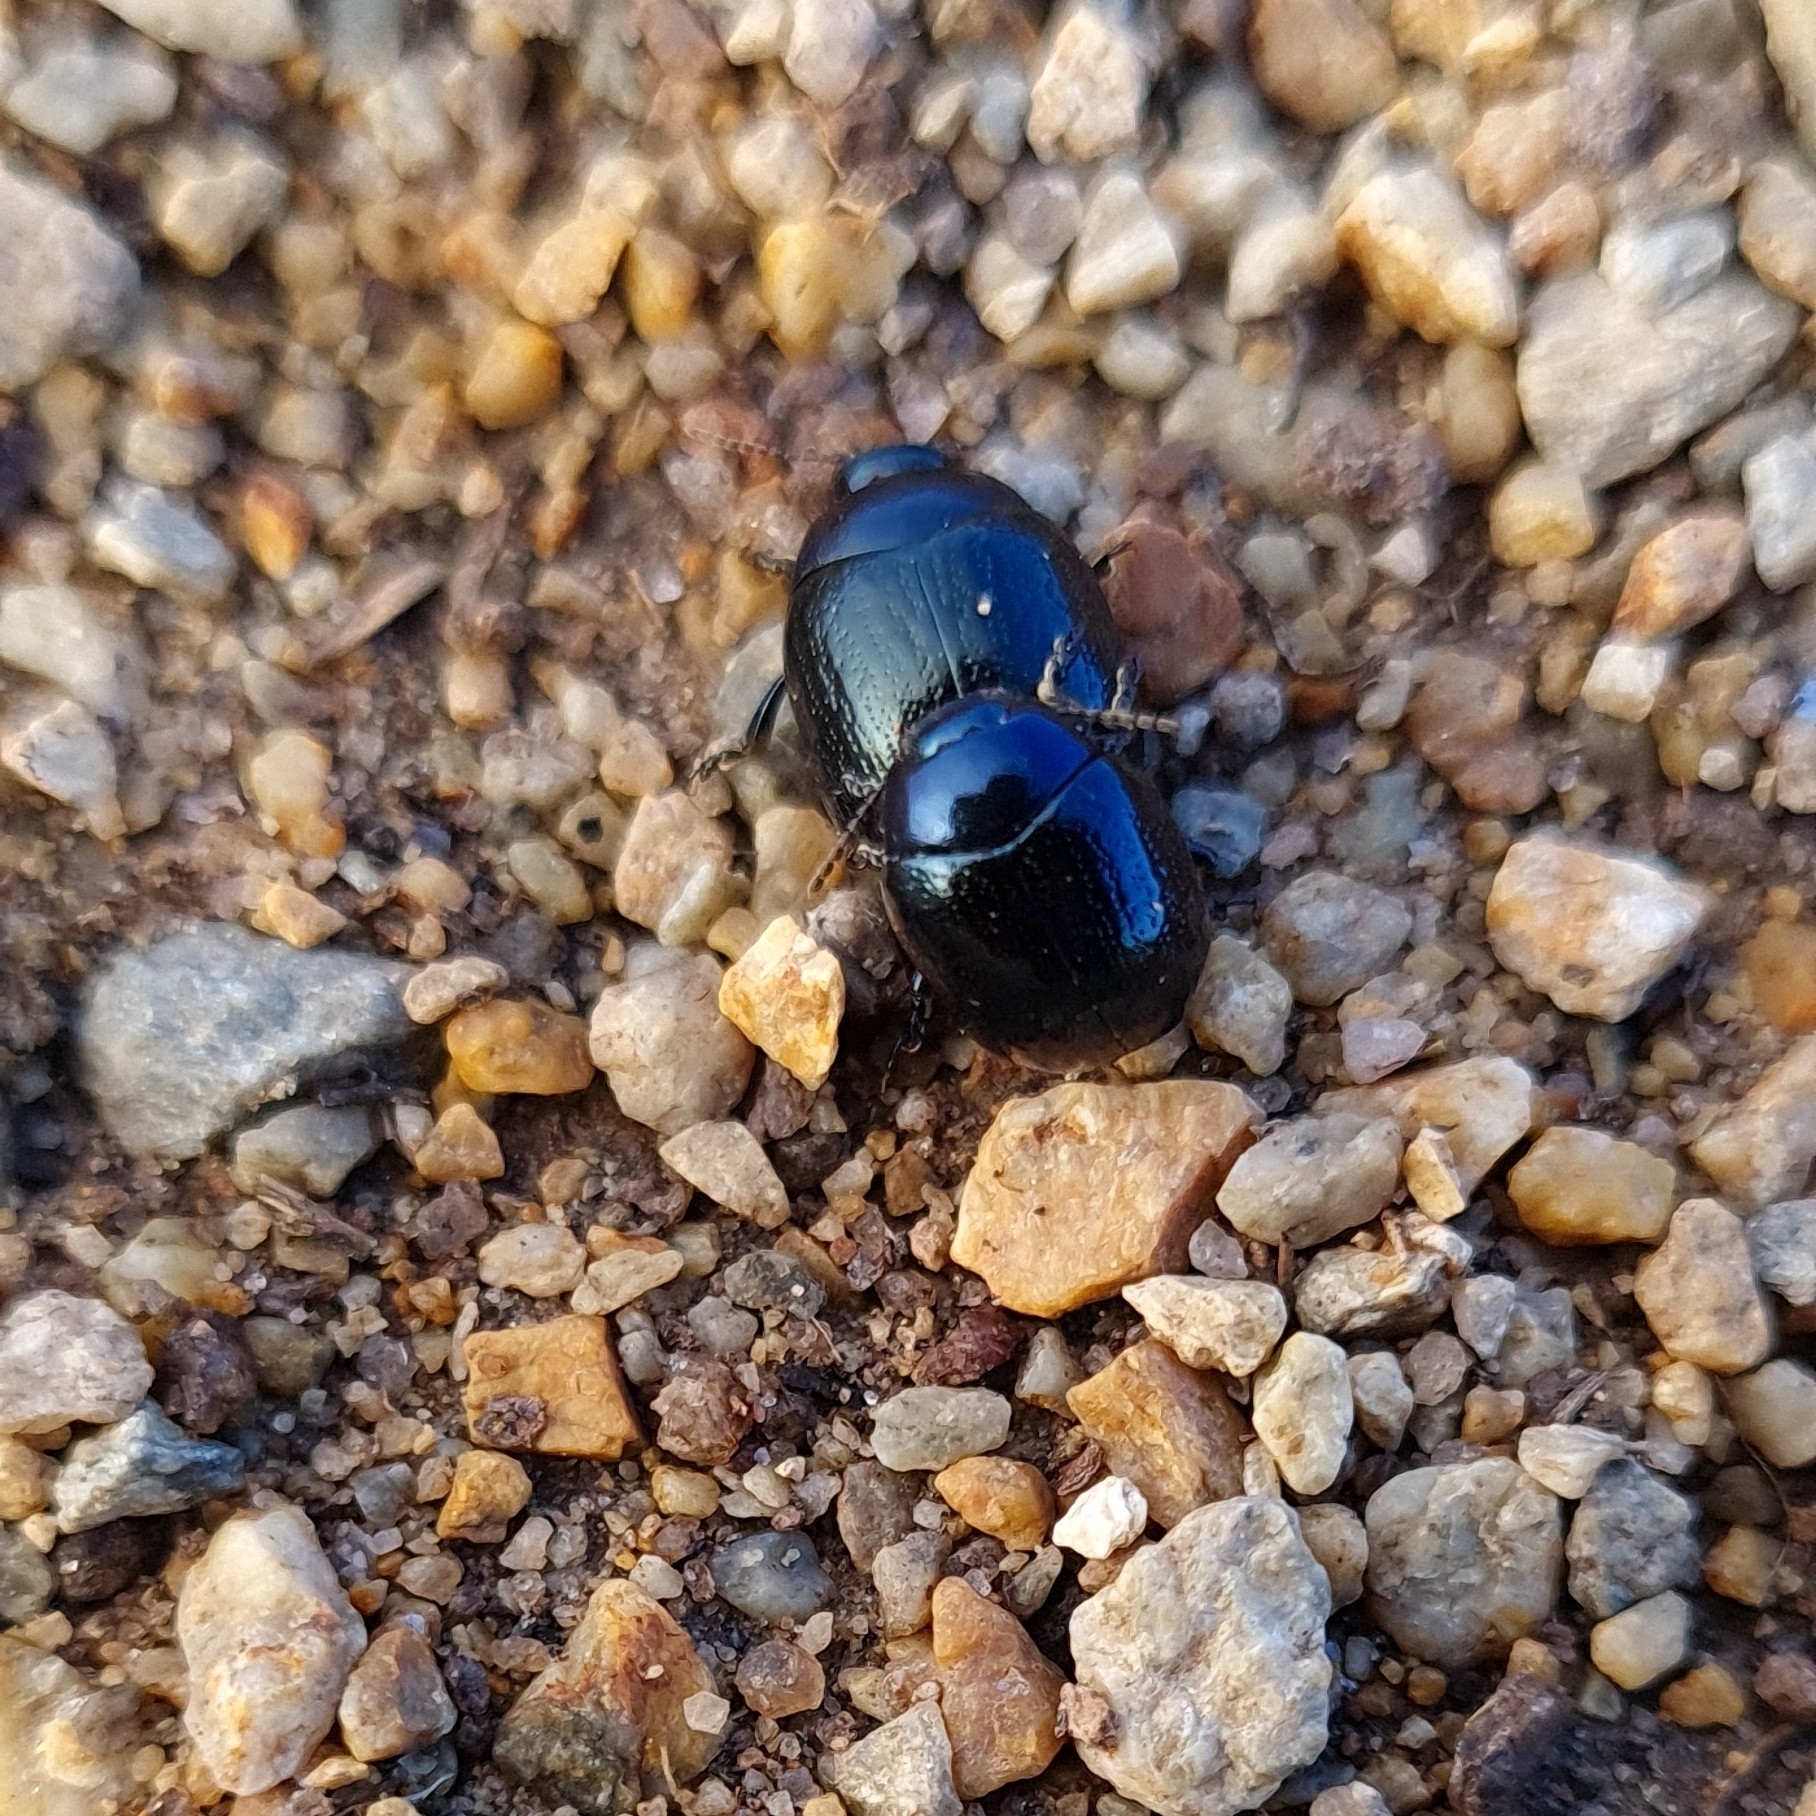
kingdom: Animalia
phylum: Arthropoda
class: Insecta
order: Coleoptera
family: Chrysomelidae
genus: Chrysolina
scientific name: Chrysolina haemoptera
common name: Plantain leaf beetle
